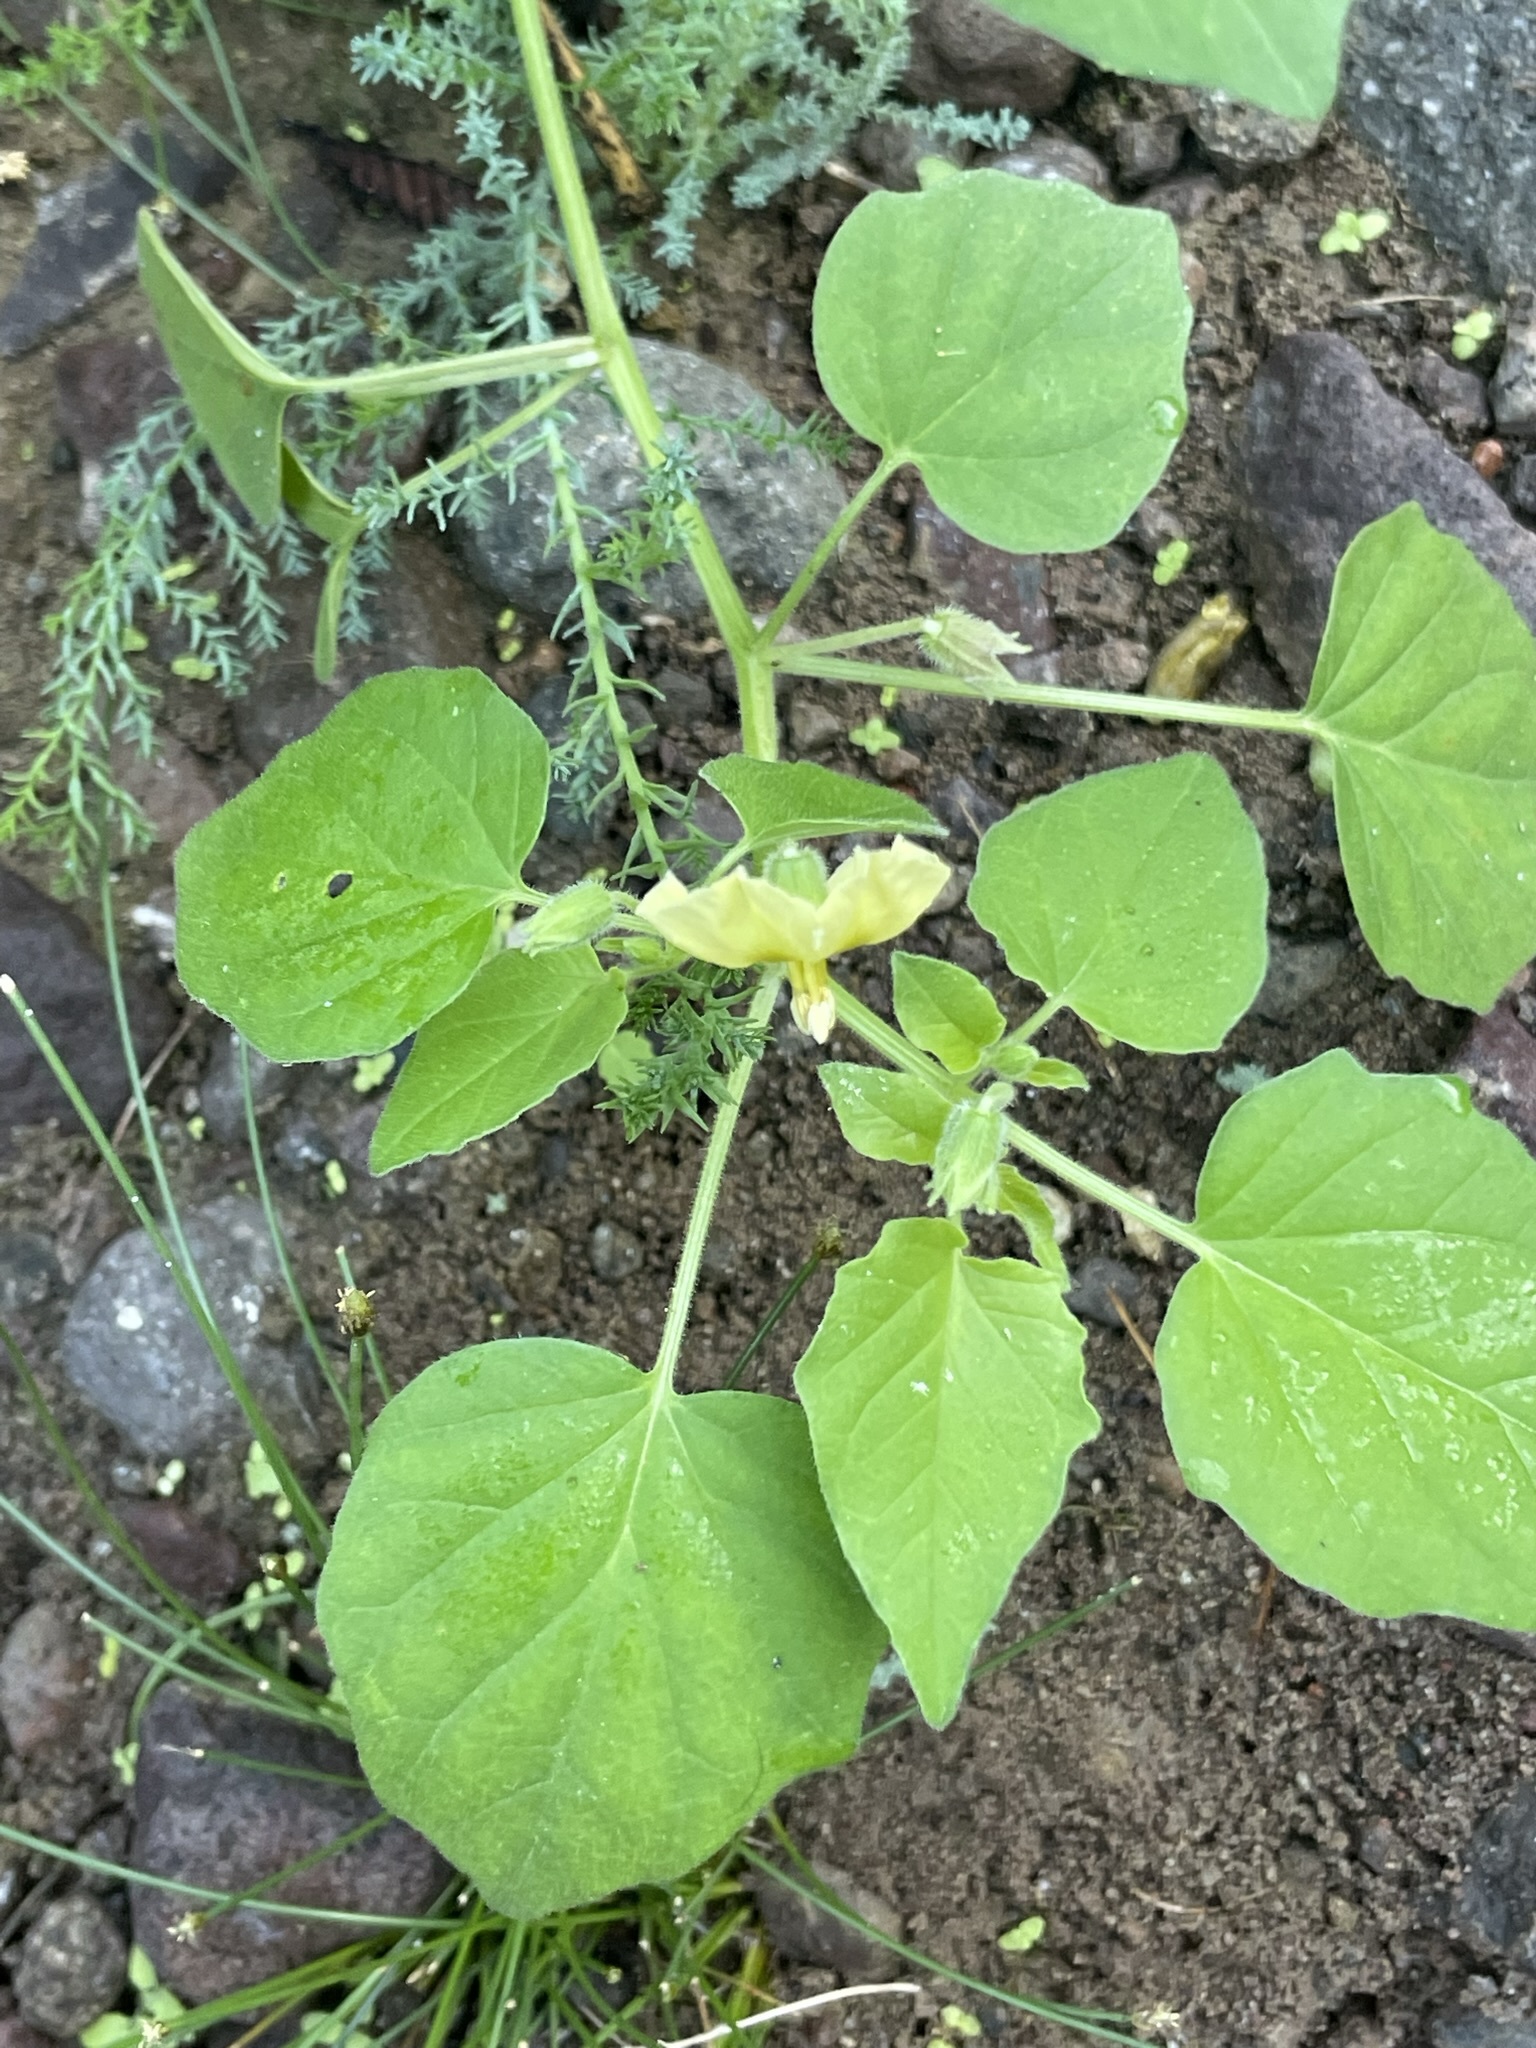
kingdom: Plantae
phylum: Tracheophyta
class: Magnoliopsida
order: Solanales
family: Solanaceae
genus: Physalis
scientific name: Physalis crassifolia
